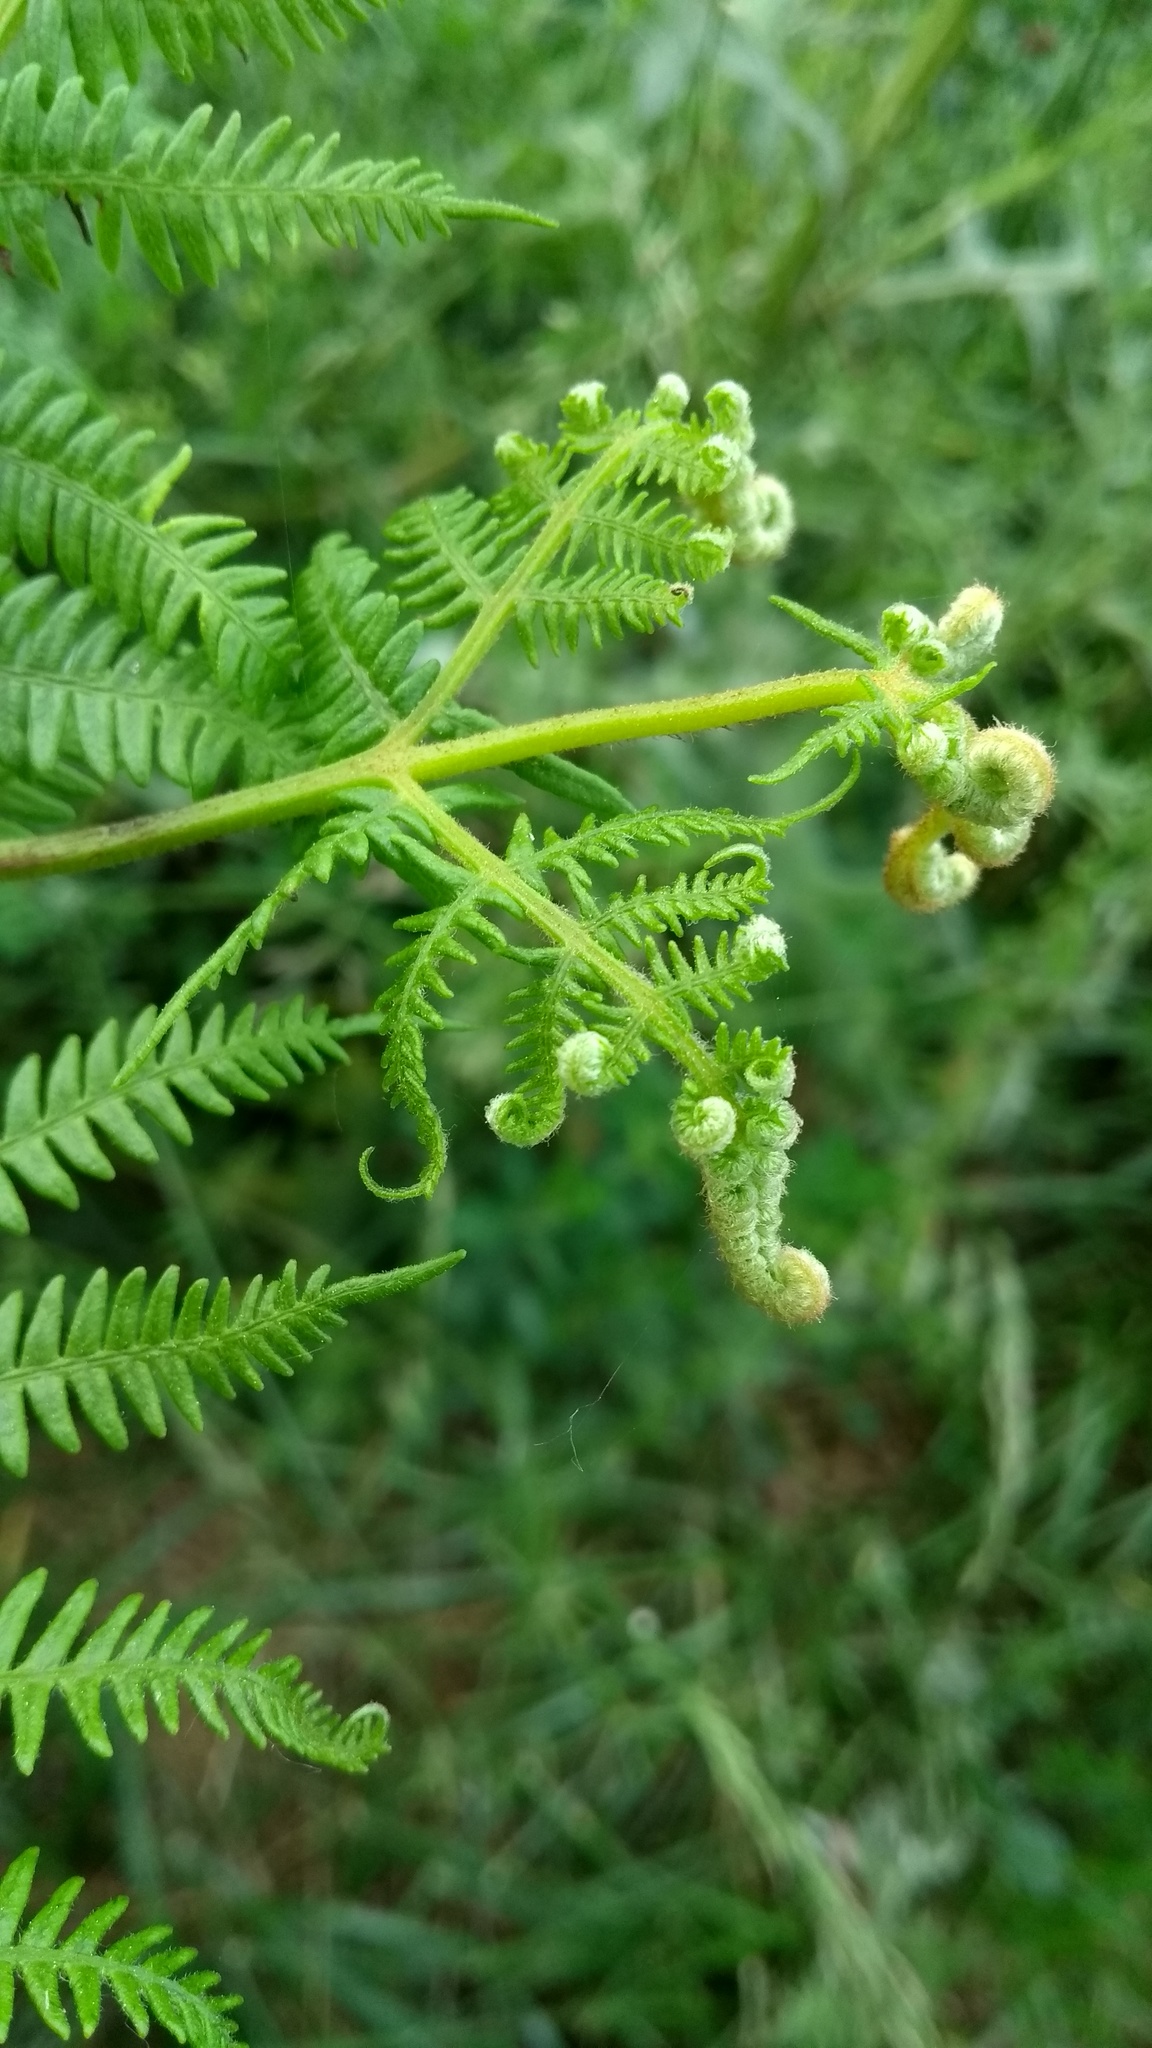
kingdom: Plantae
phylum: Tracheophyta
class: Polypodiopsida
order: Polypodiales
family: Dennstaedtiaceae
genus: Pteridium
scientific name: Pteridium aquilinum
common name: Bracken
